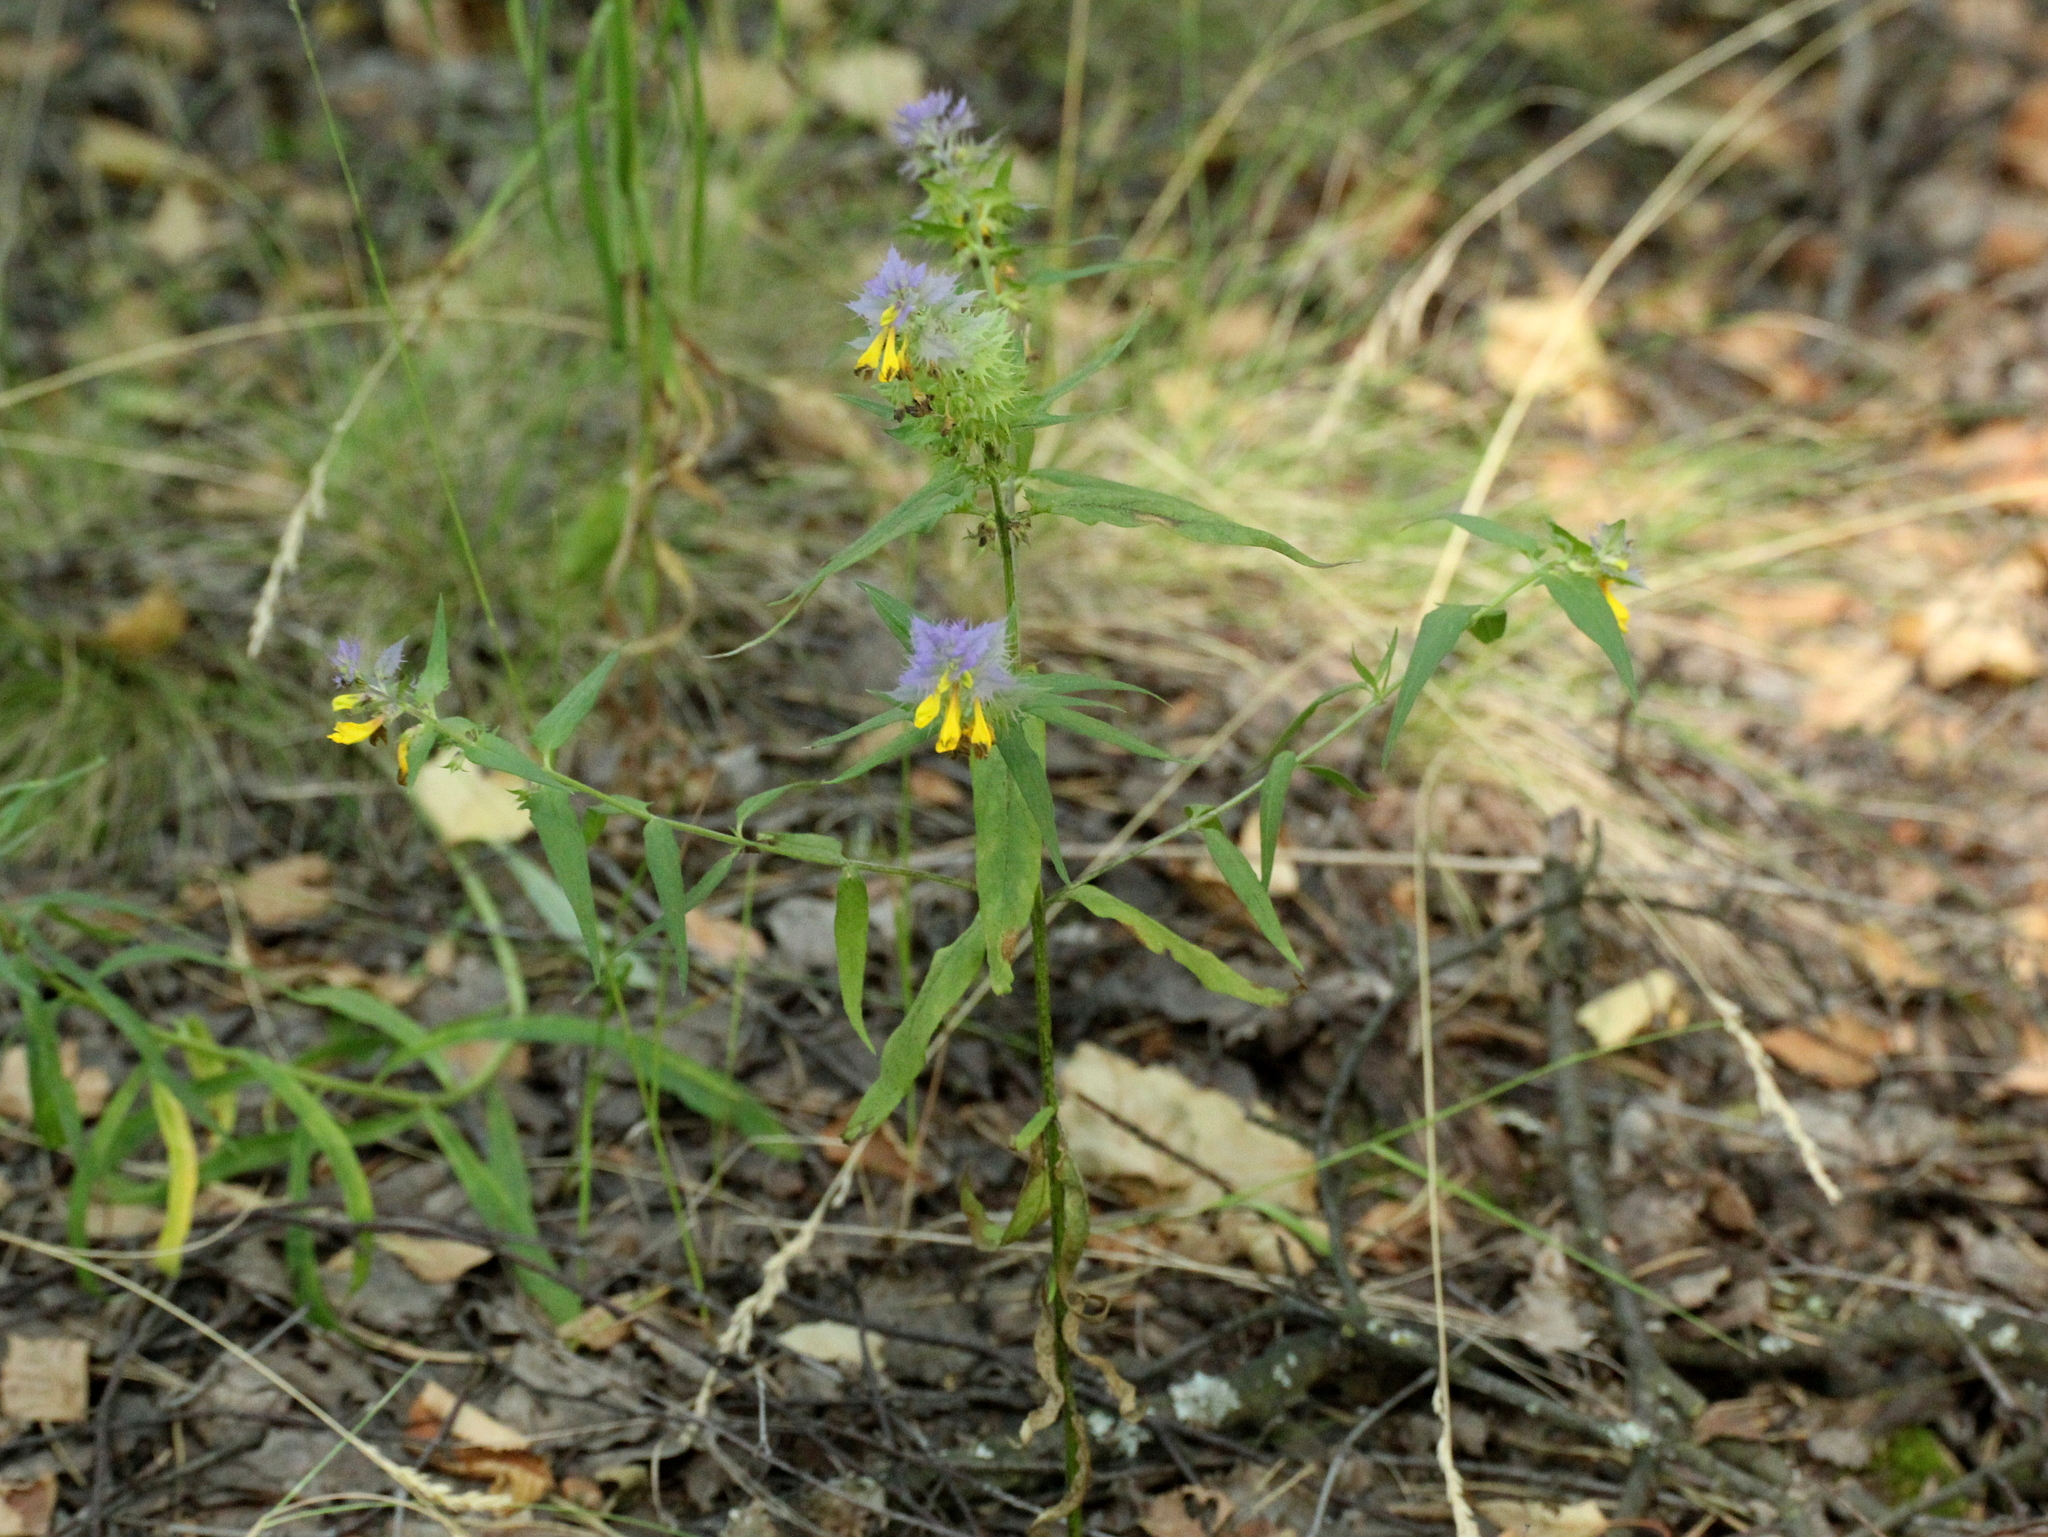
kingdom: Plantae
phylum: Tracheophyta
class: Magnoliopsida
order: Lamiales
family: Orobanchaceae
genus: Melampyrum
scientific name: Melampyrum nemorosum
